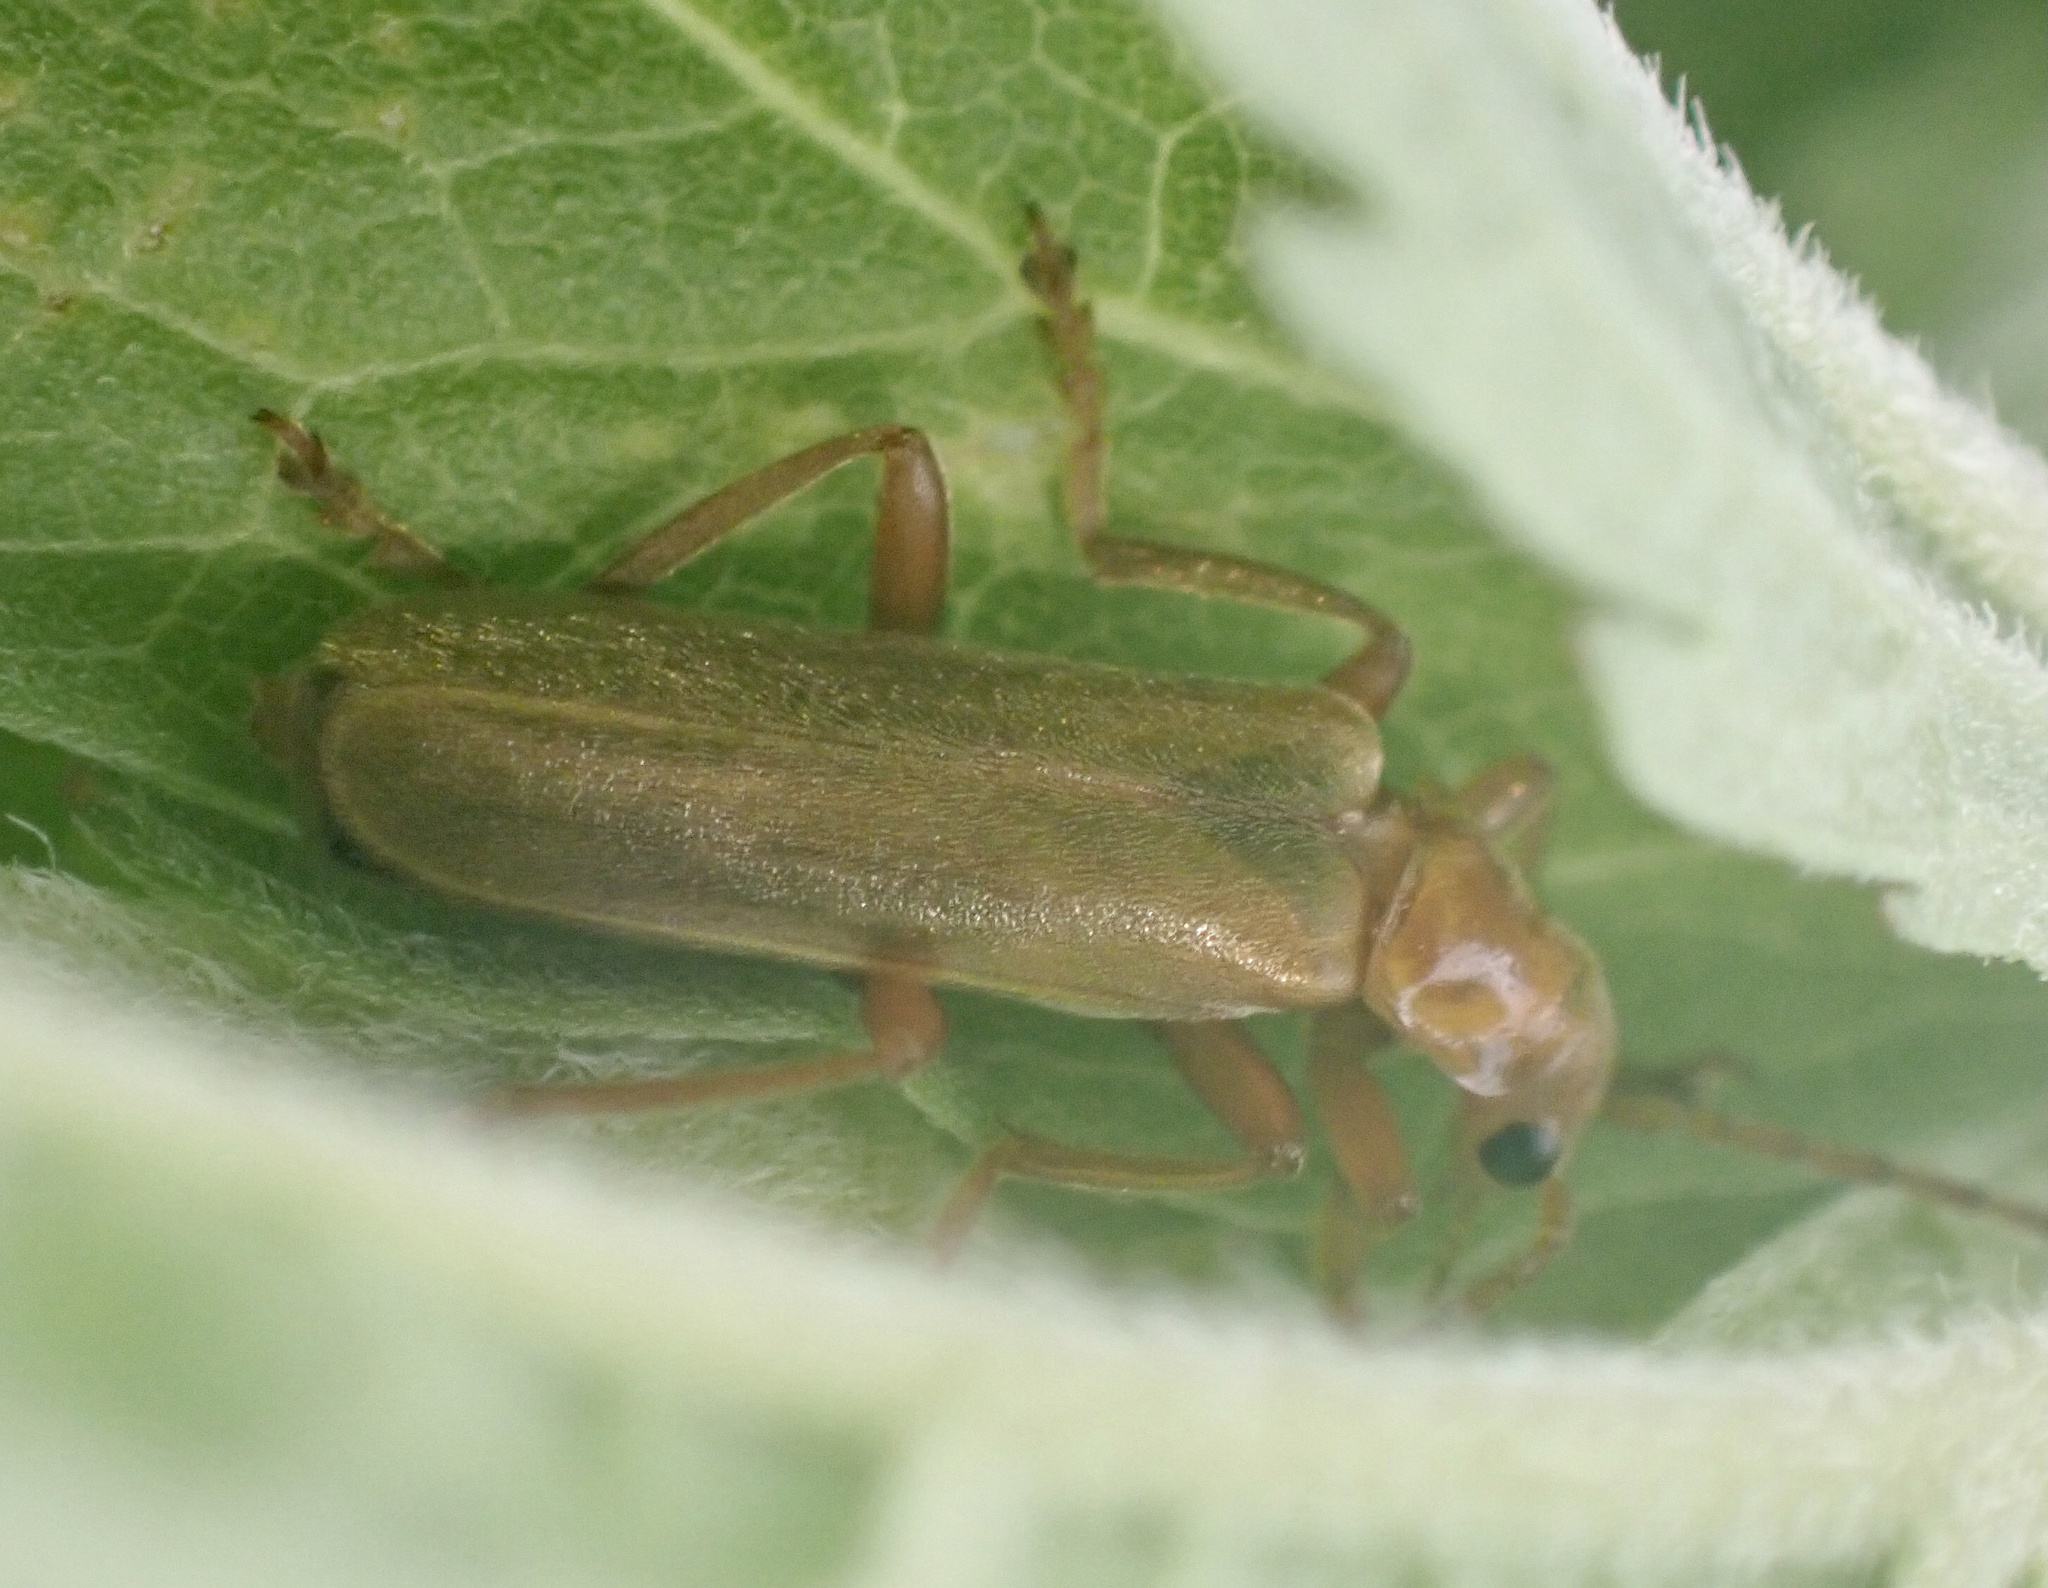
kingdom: Animalia
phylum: Arthropoda
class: Insecta
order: Coleoptera
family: Cantharidae
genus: Cantharis
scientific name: Cantharis rufa
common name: Red-spotted soldier beetle
